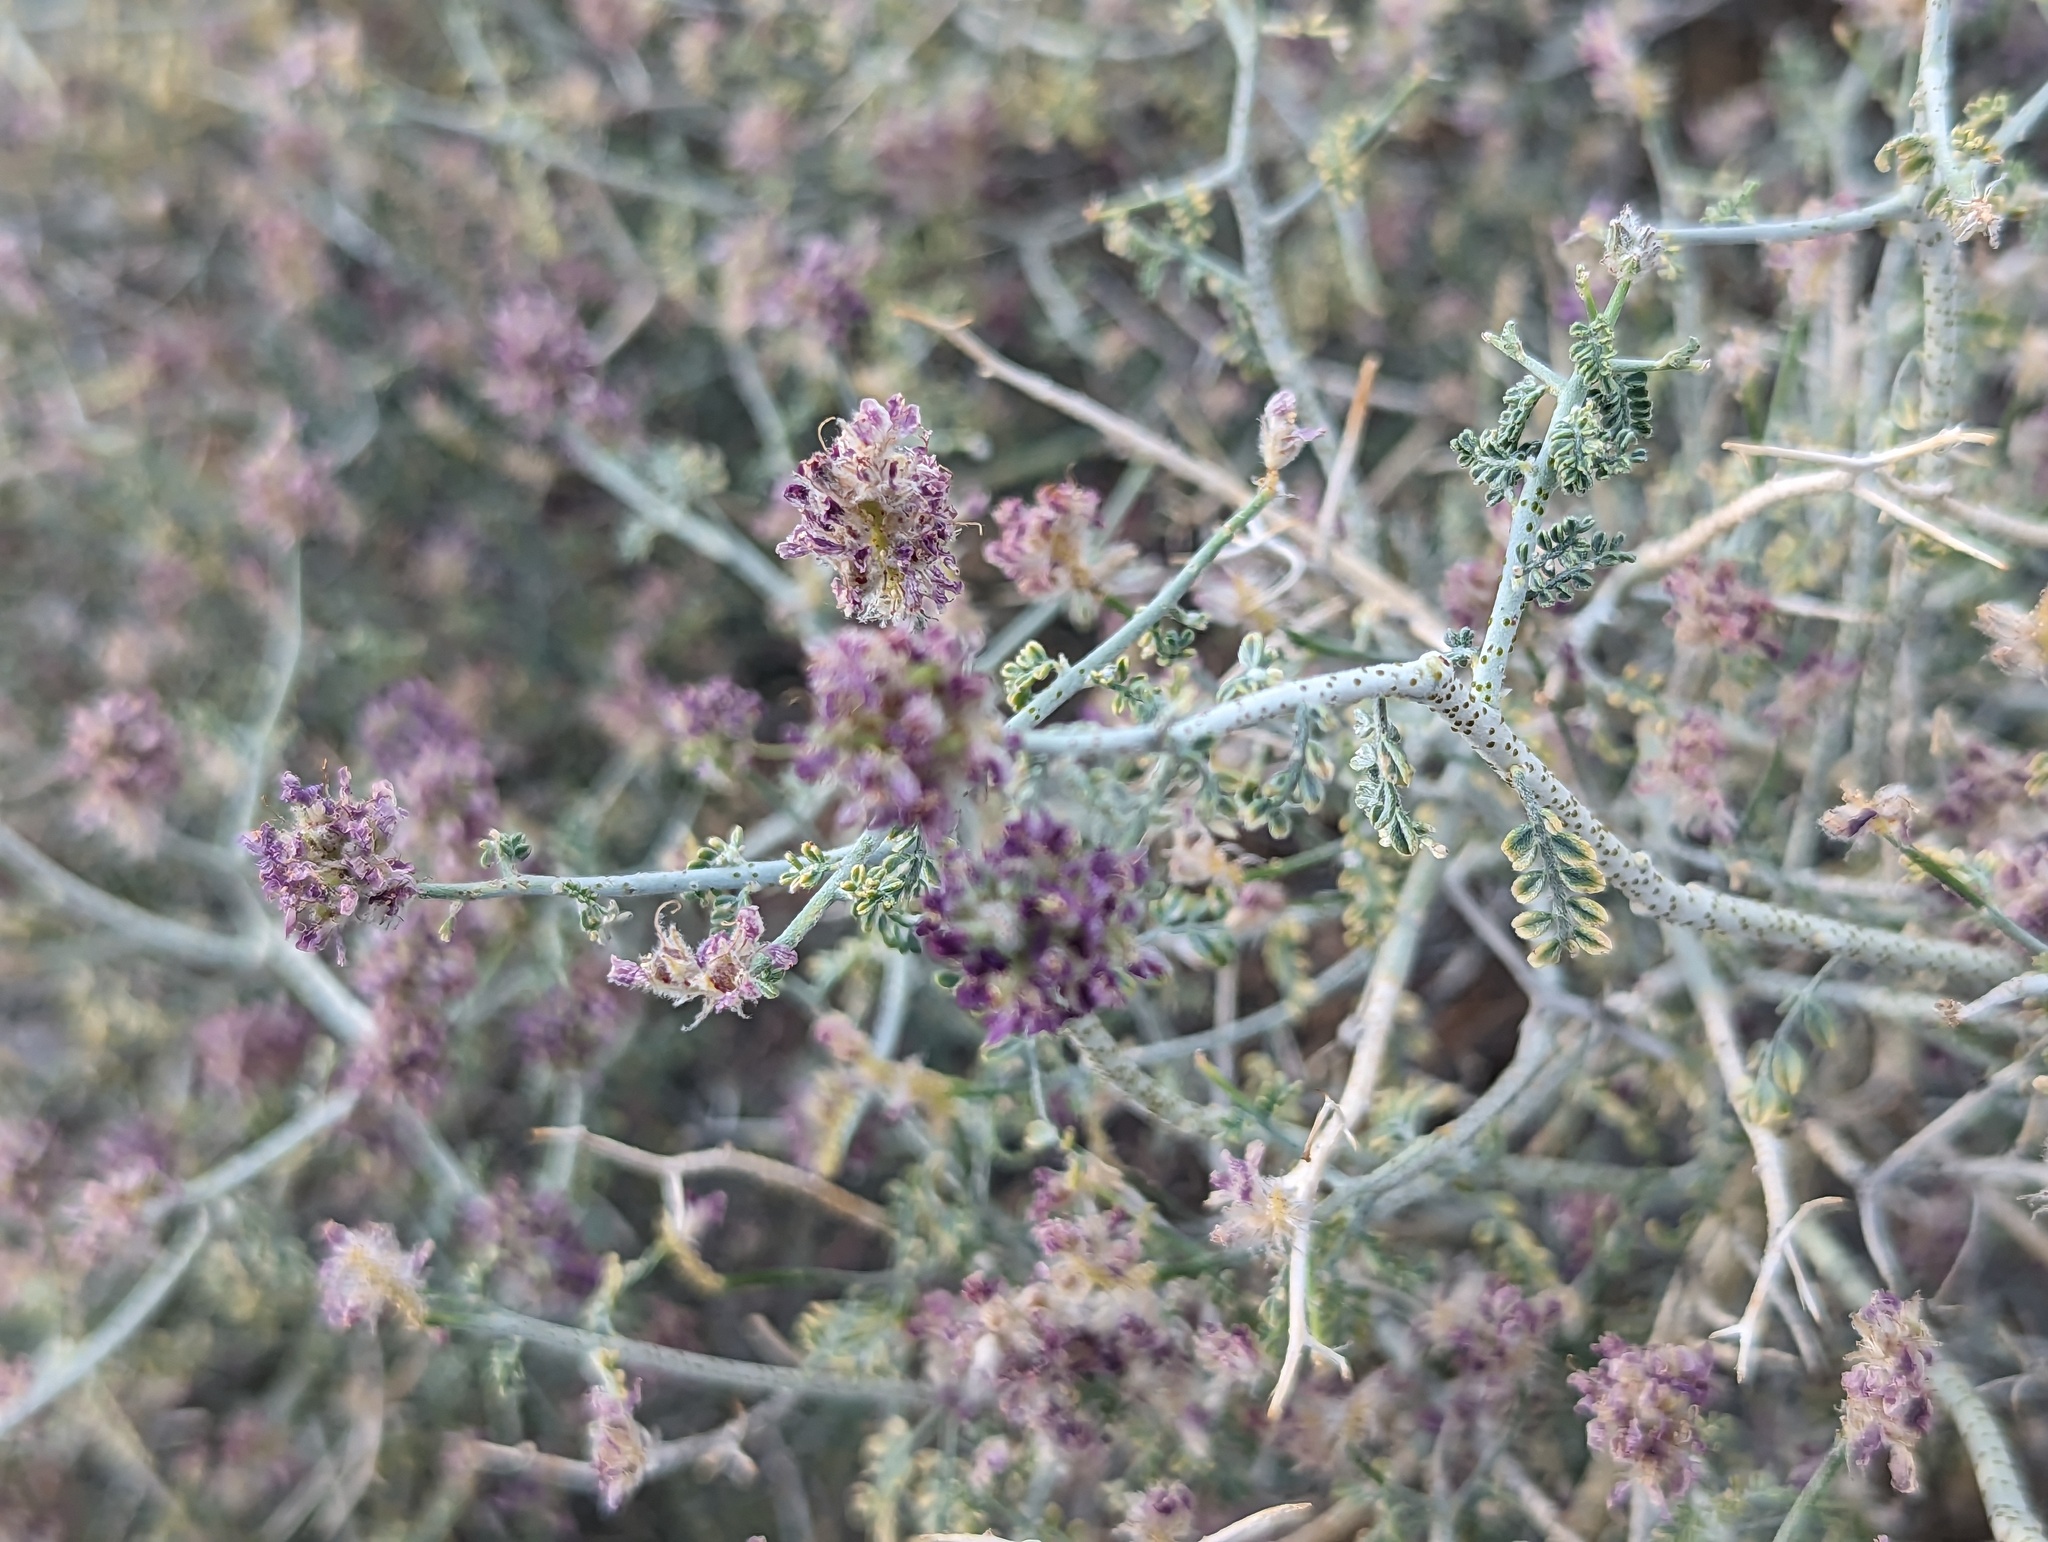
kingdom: Plantae
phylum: Tracheophyta
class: Magnoliopsida
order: Fabales
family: Fabaceae
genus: Psorothamnus
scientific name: Psorothamnus polydenius
